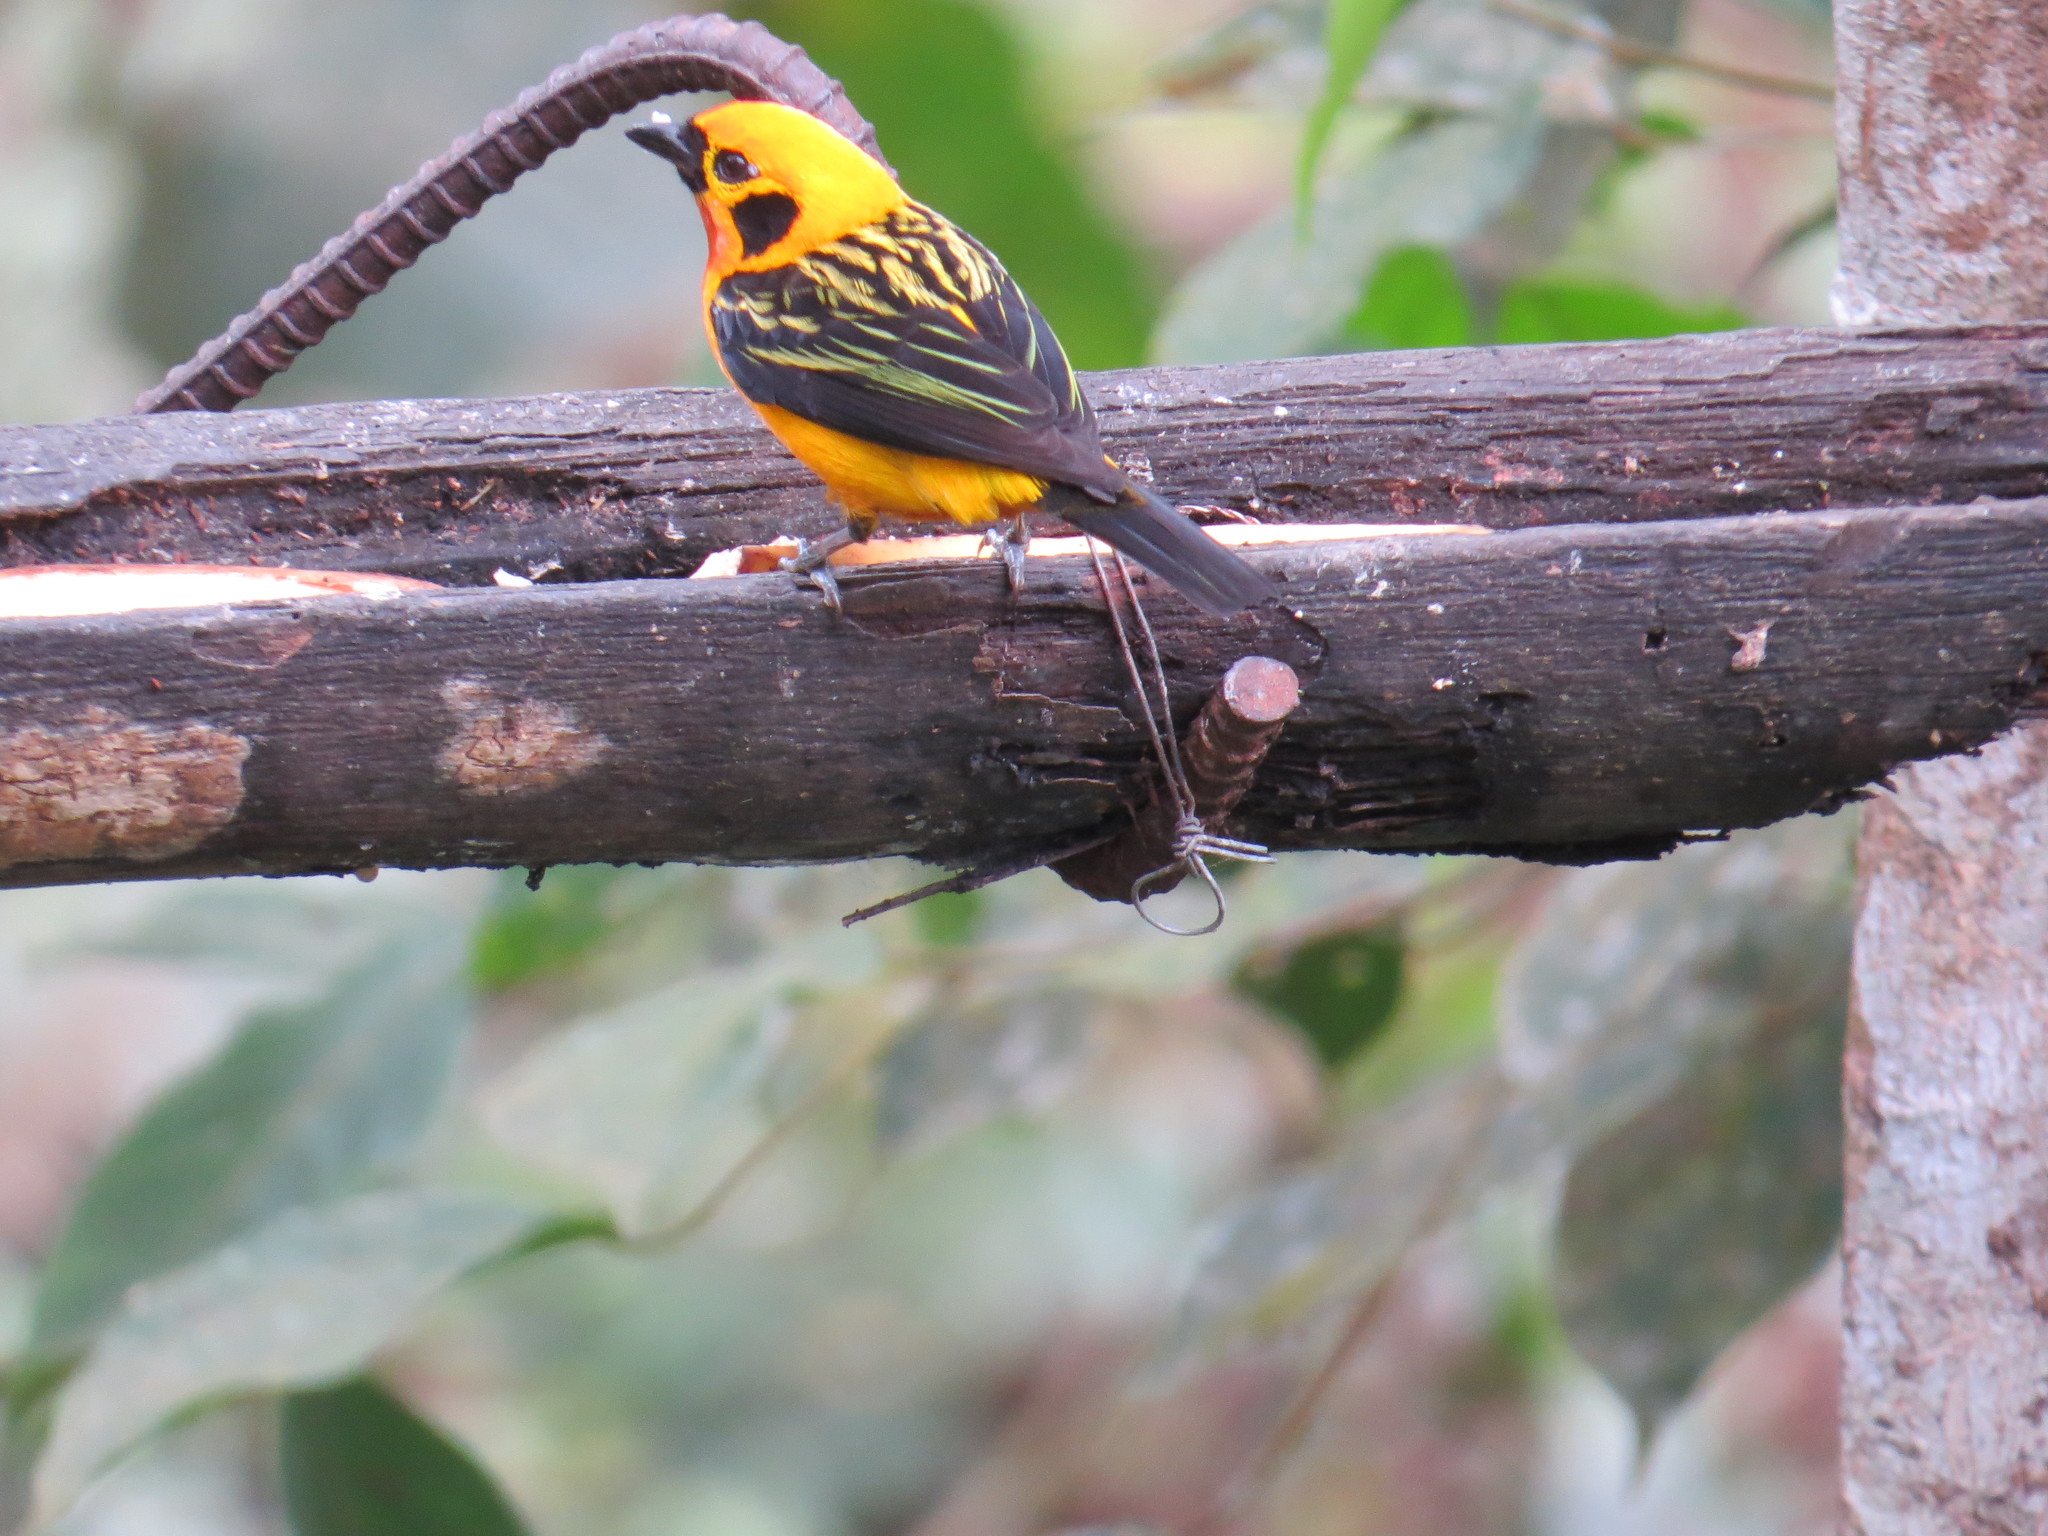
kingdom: Animalia
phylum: Chordata
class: Aves
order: Passeriformes
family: Thraupidae
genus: Tangara
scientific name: Tangara arthus
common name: Golden tanager
